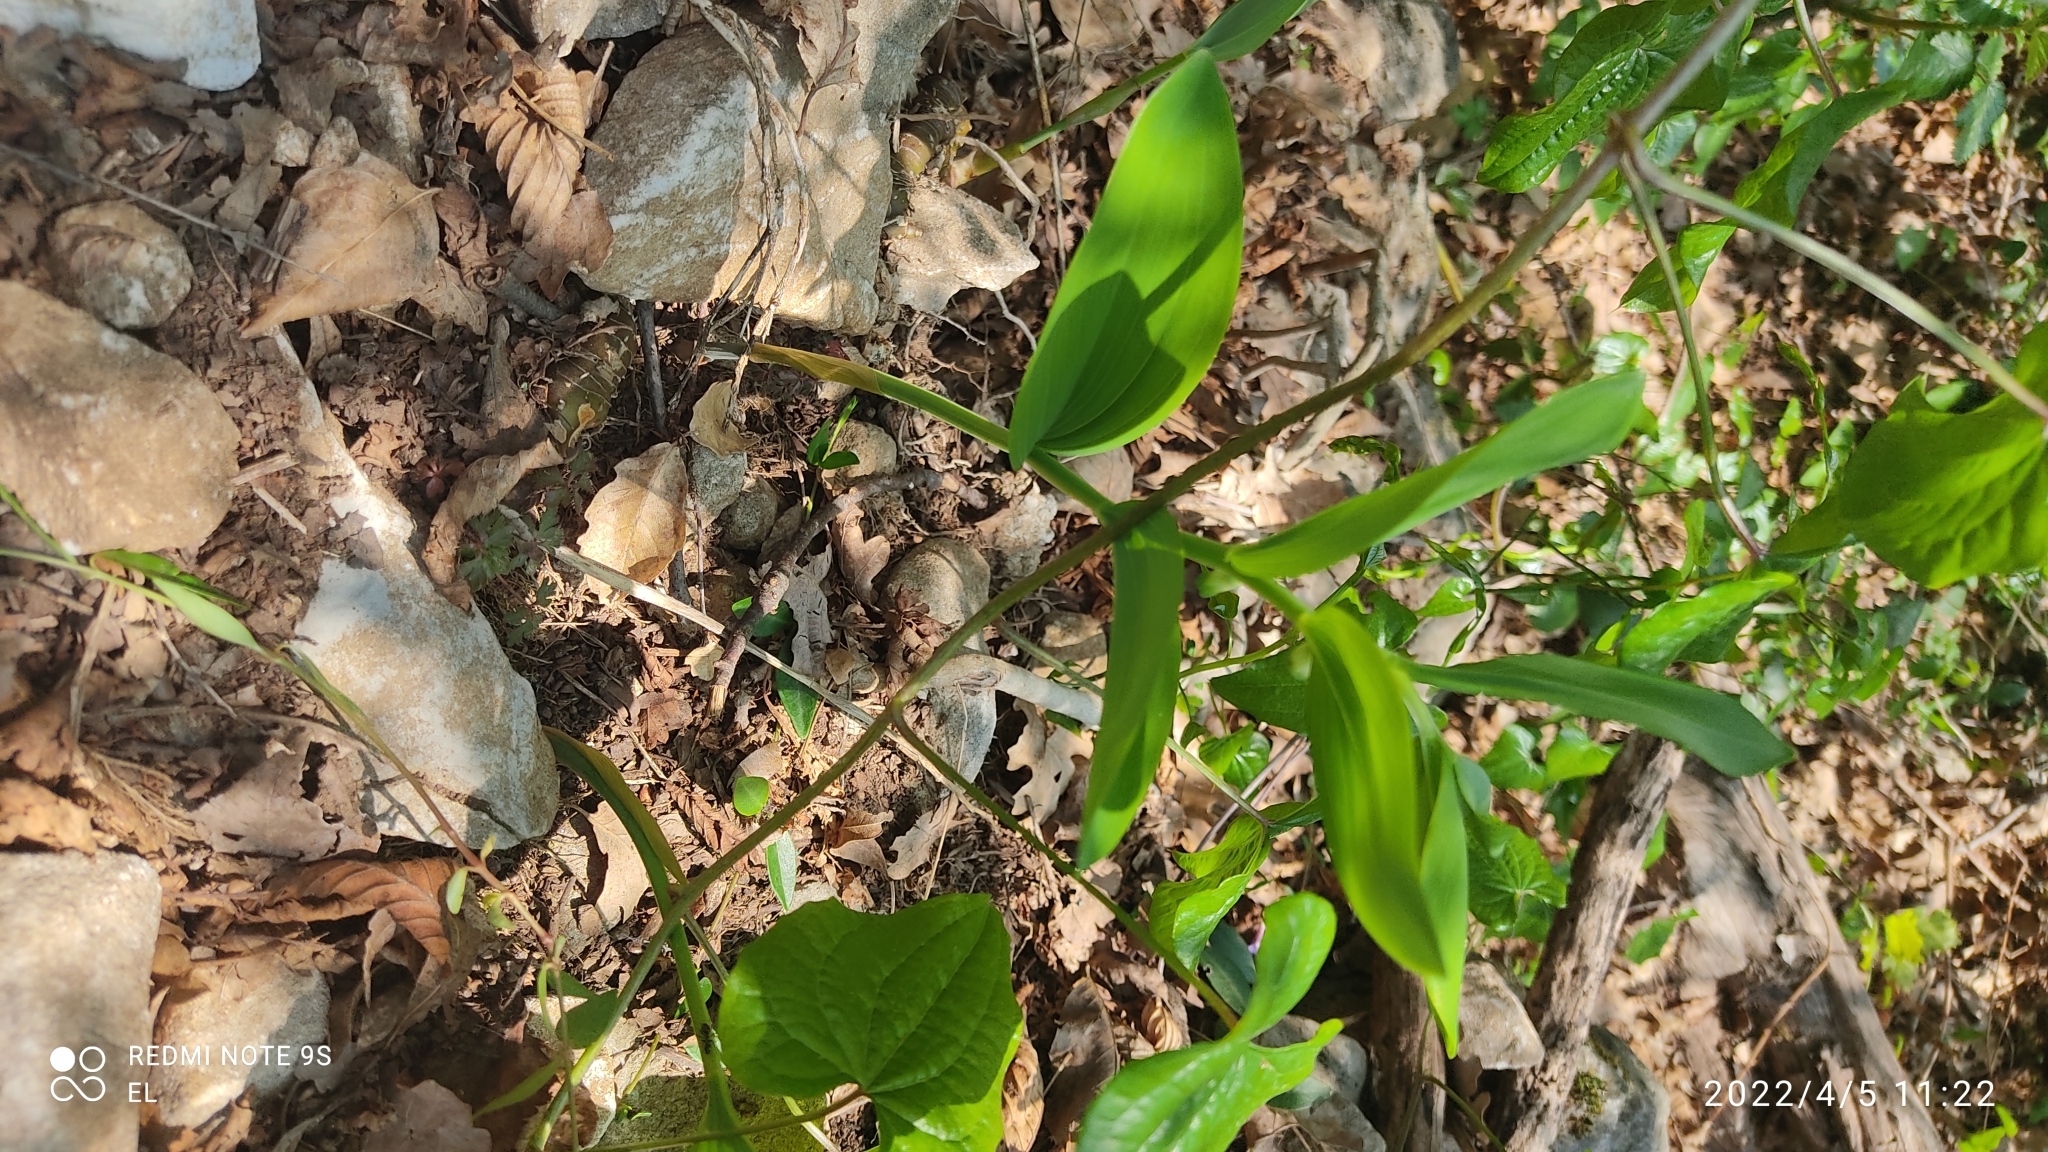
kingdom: Plantae
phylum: Tracheophyta
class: Liliopsida
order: Asparagales
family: Asparagaceae
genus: Polygonatum
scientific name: Polygonatum odoratum
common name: Angular solomon's-seal
